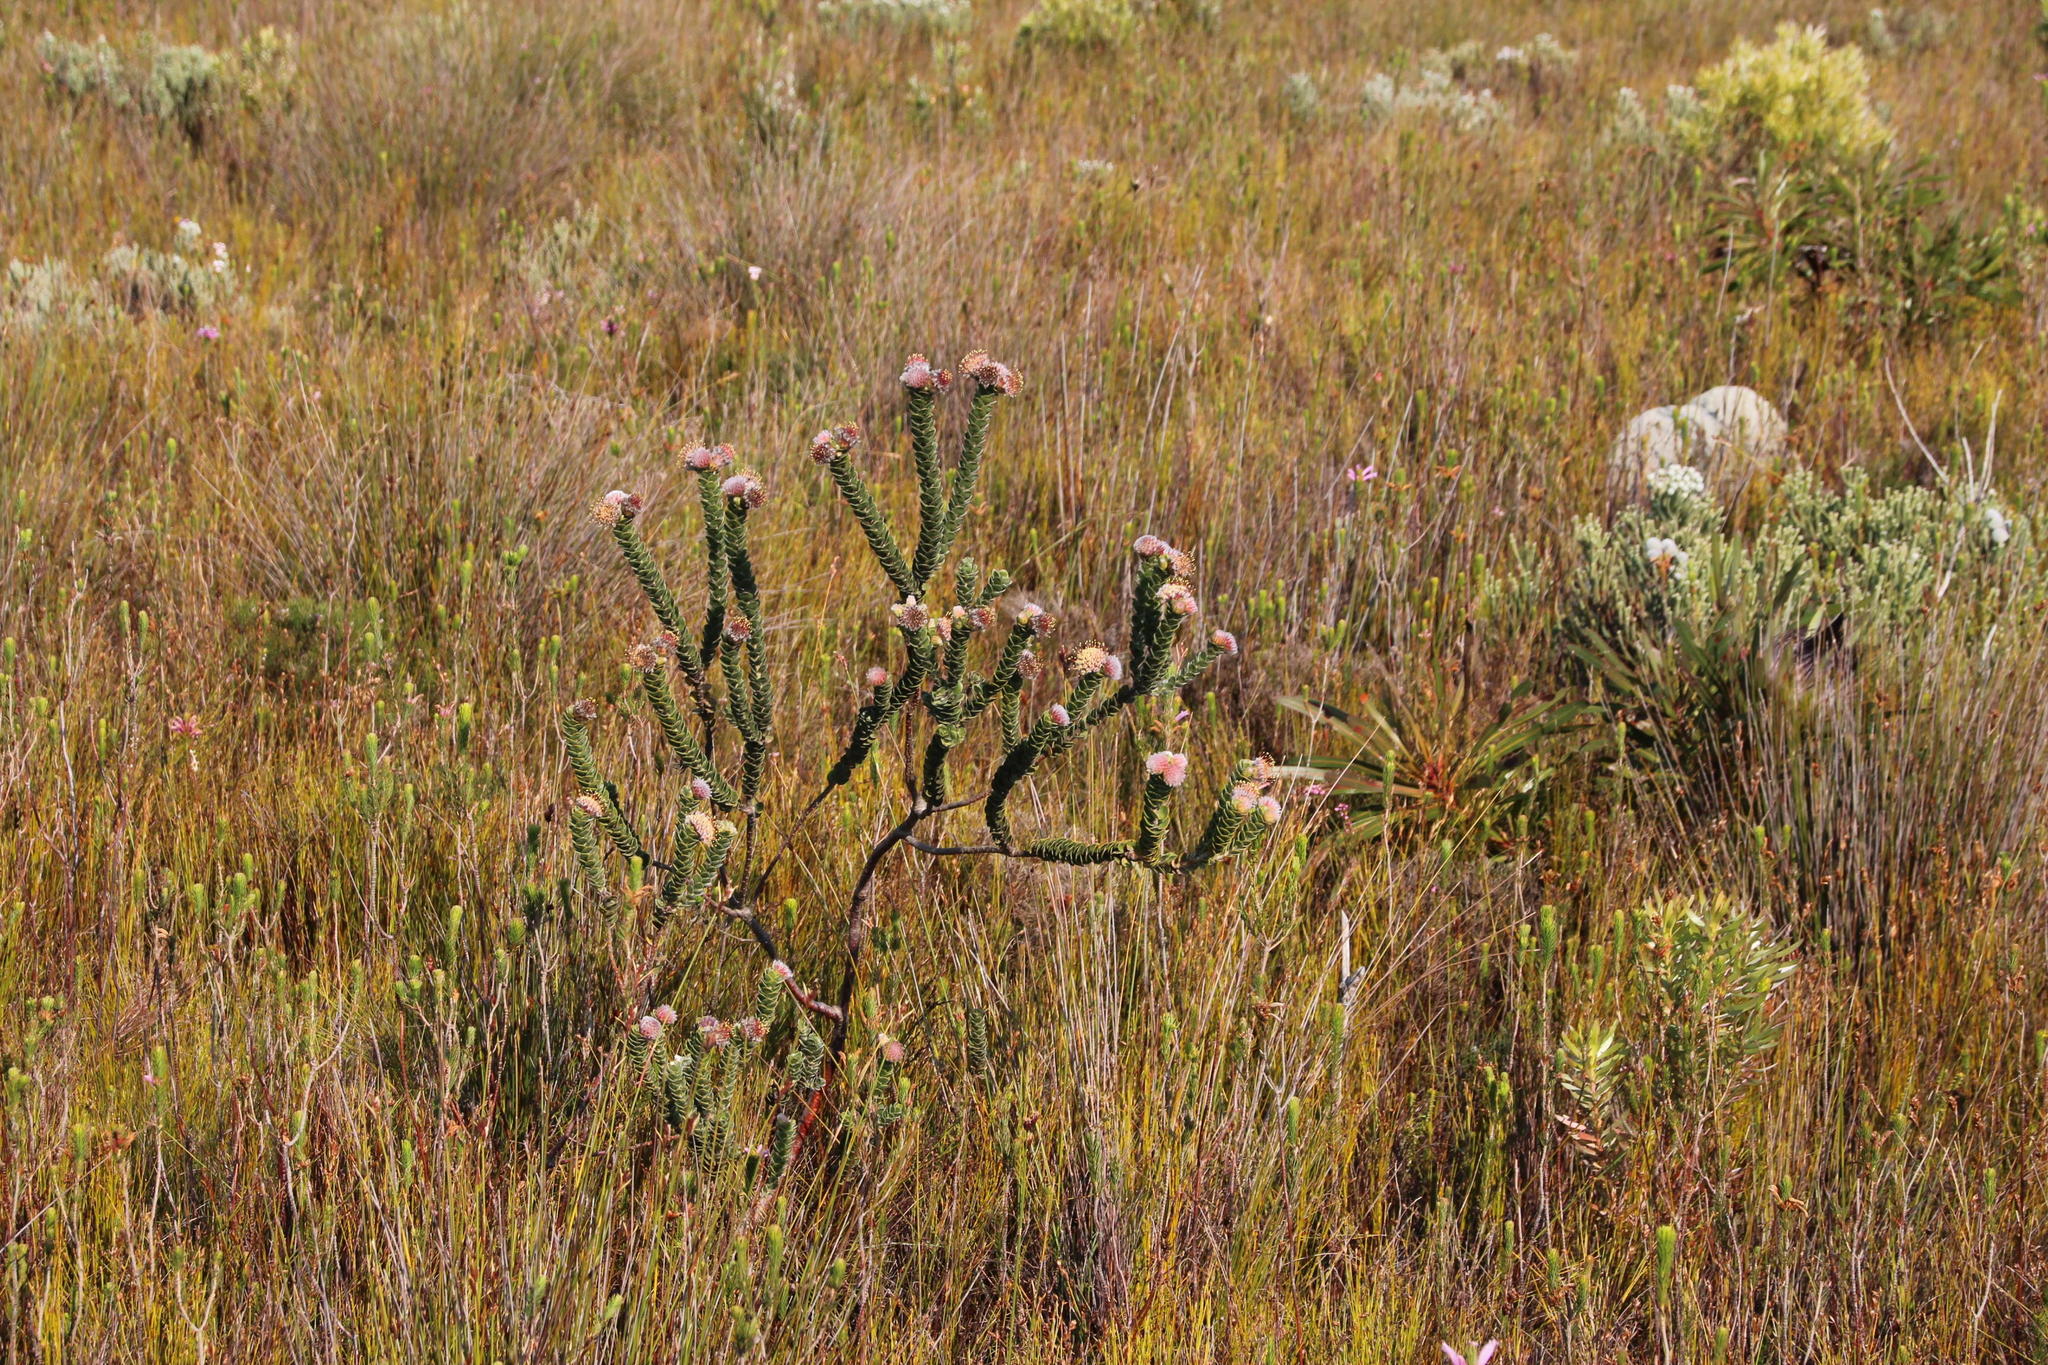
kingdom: Plantae
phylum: Tracheophyta
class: Magnoliopsida
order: Proteales
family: Proteaceae
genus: Leucospermum
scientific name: Leucospermum truncatulum
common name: Oval-leaf pincushion
